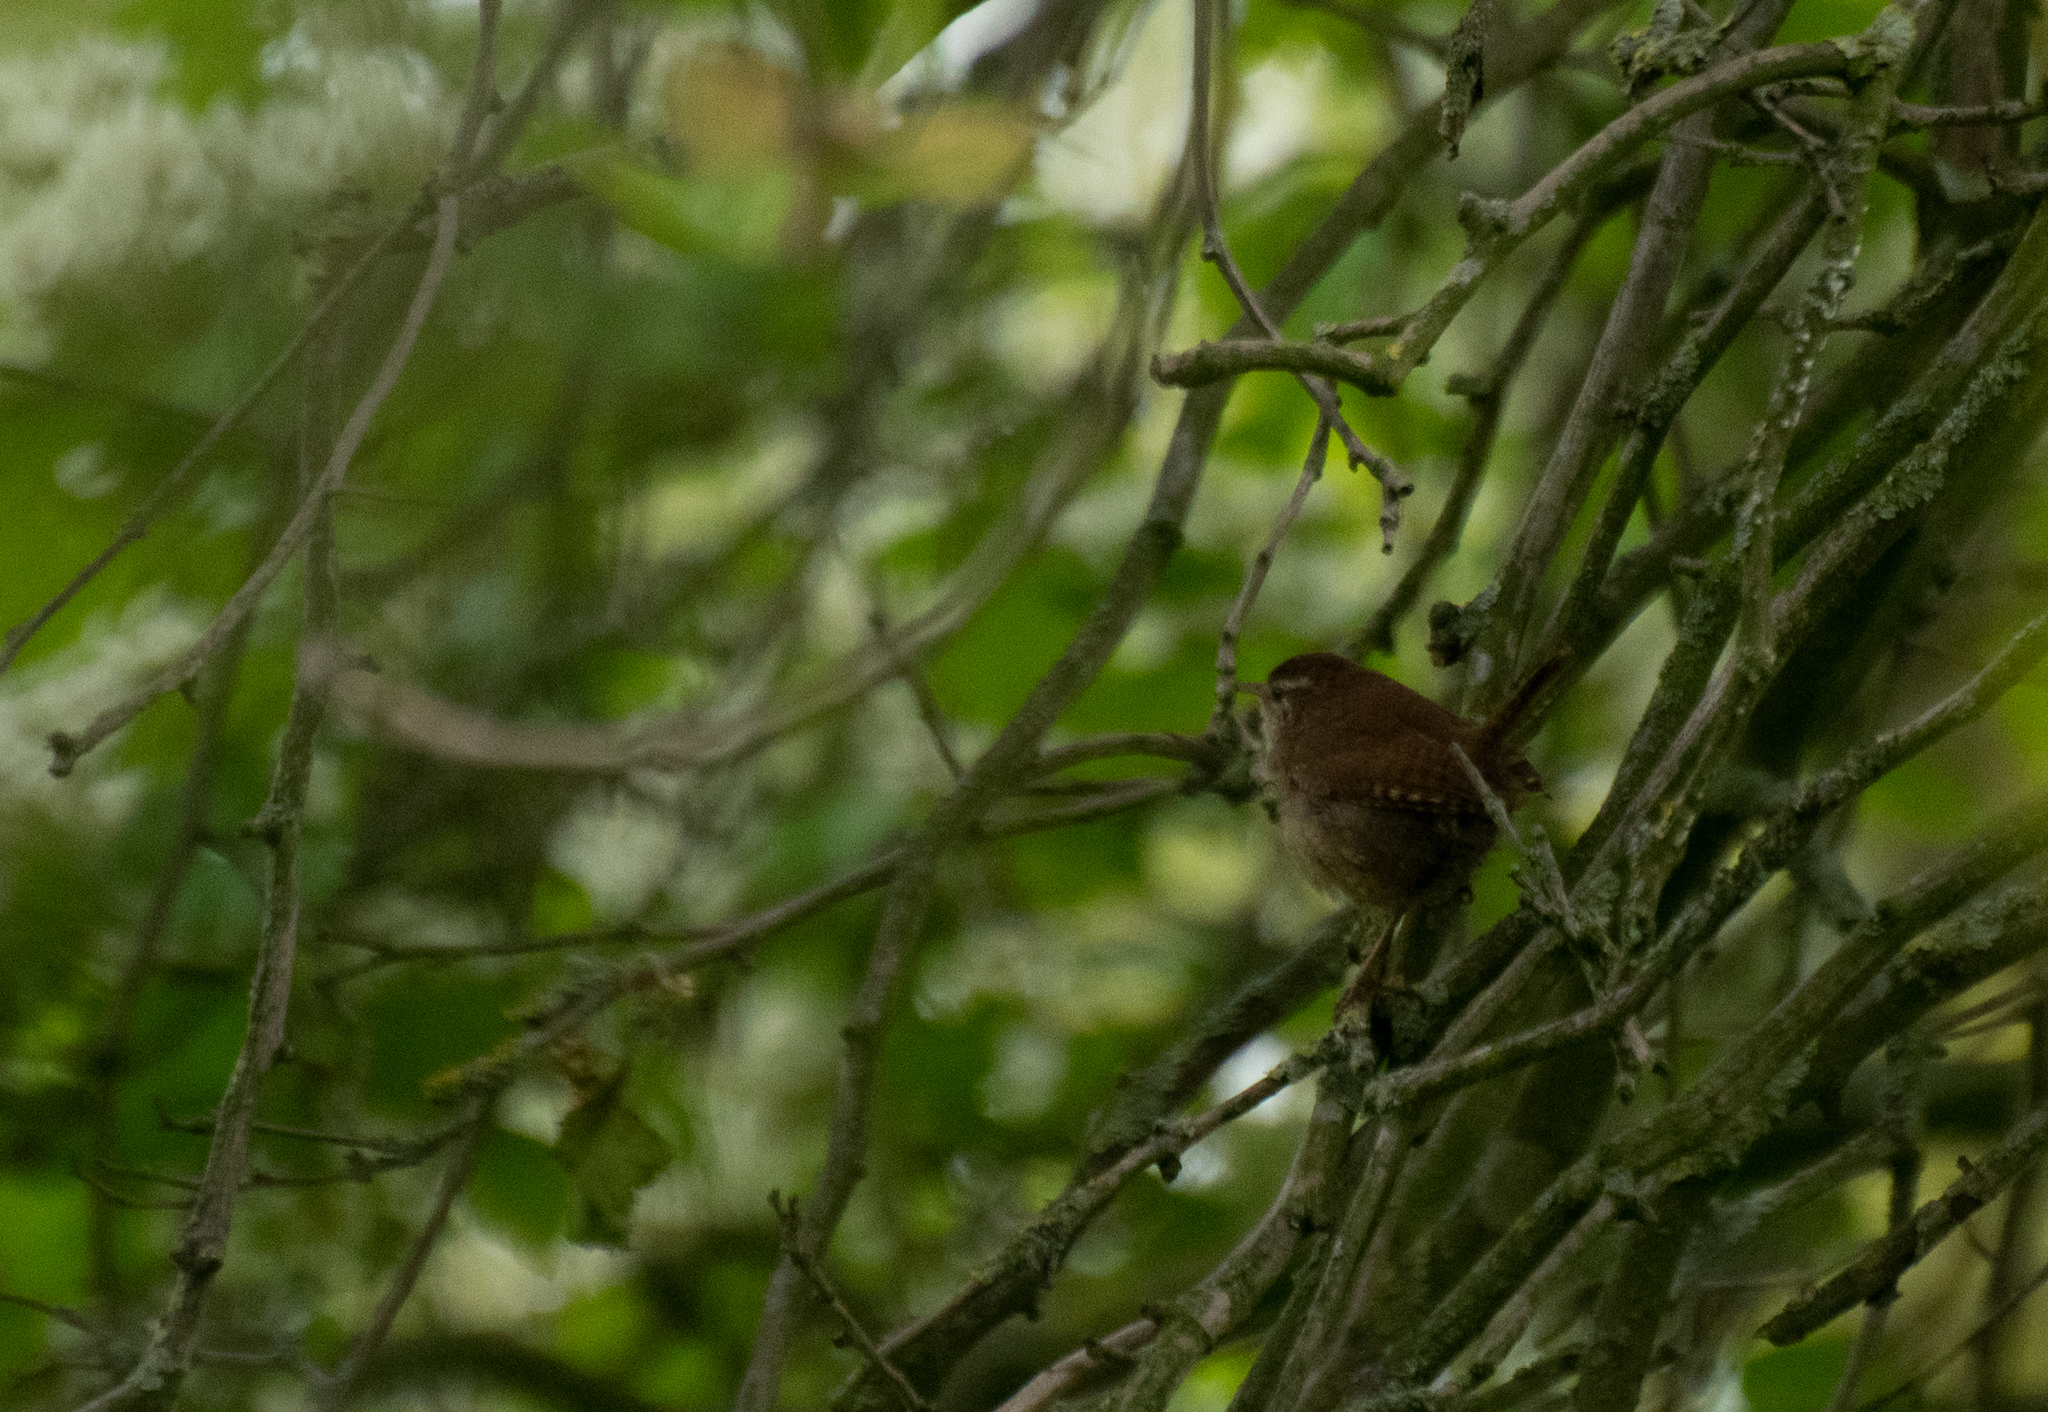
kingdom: Animalia
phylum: Chordata
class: Aves
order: Passeriformes
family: Troglodytidae
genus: Troglodytes
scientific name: Troglodytes troglodytes
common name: Eurasian wren
